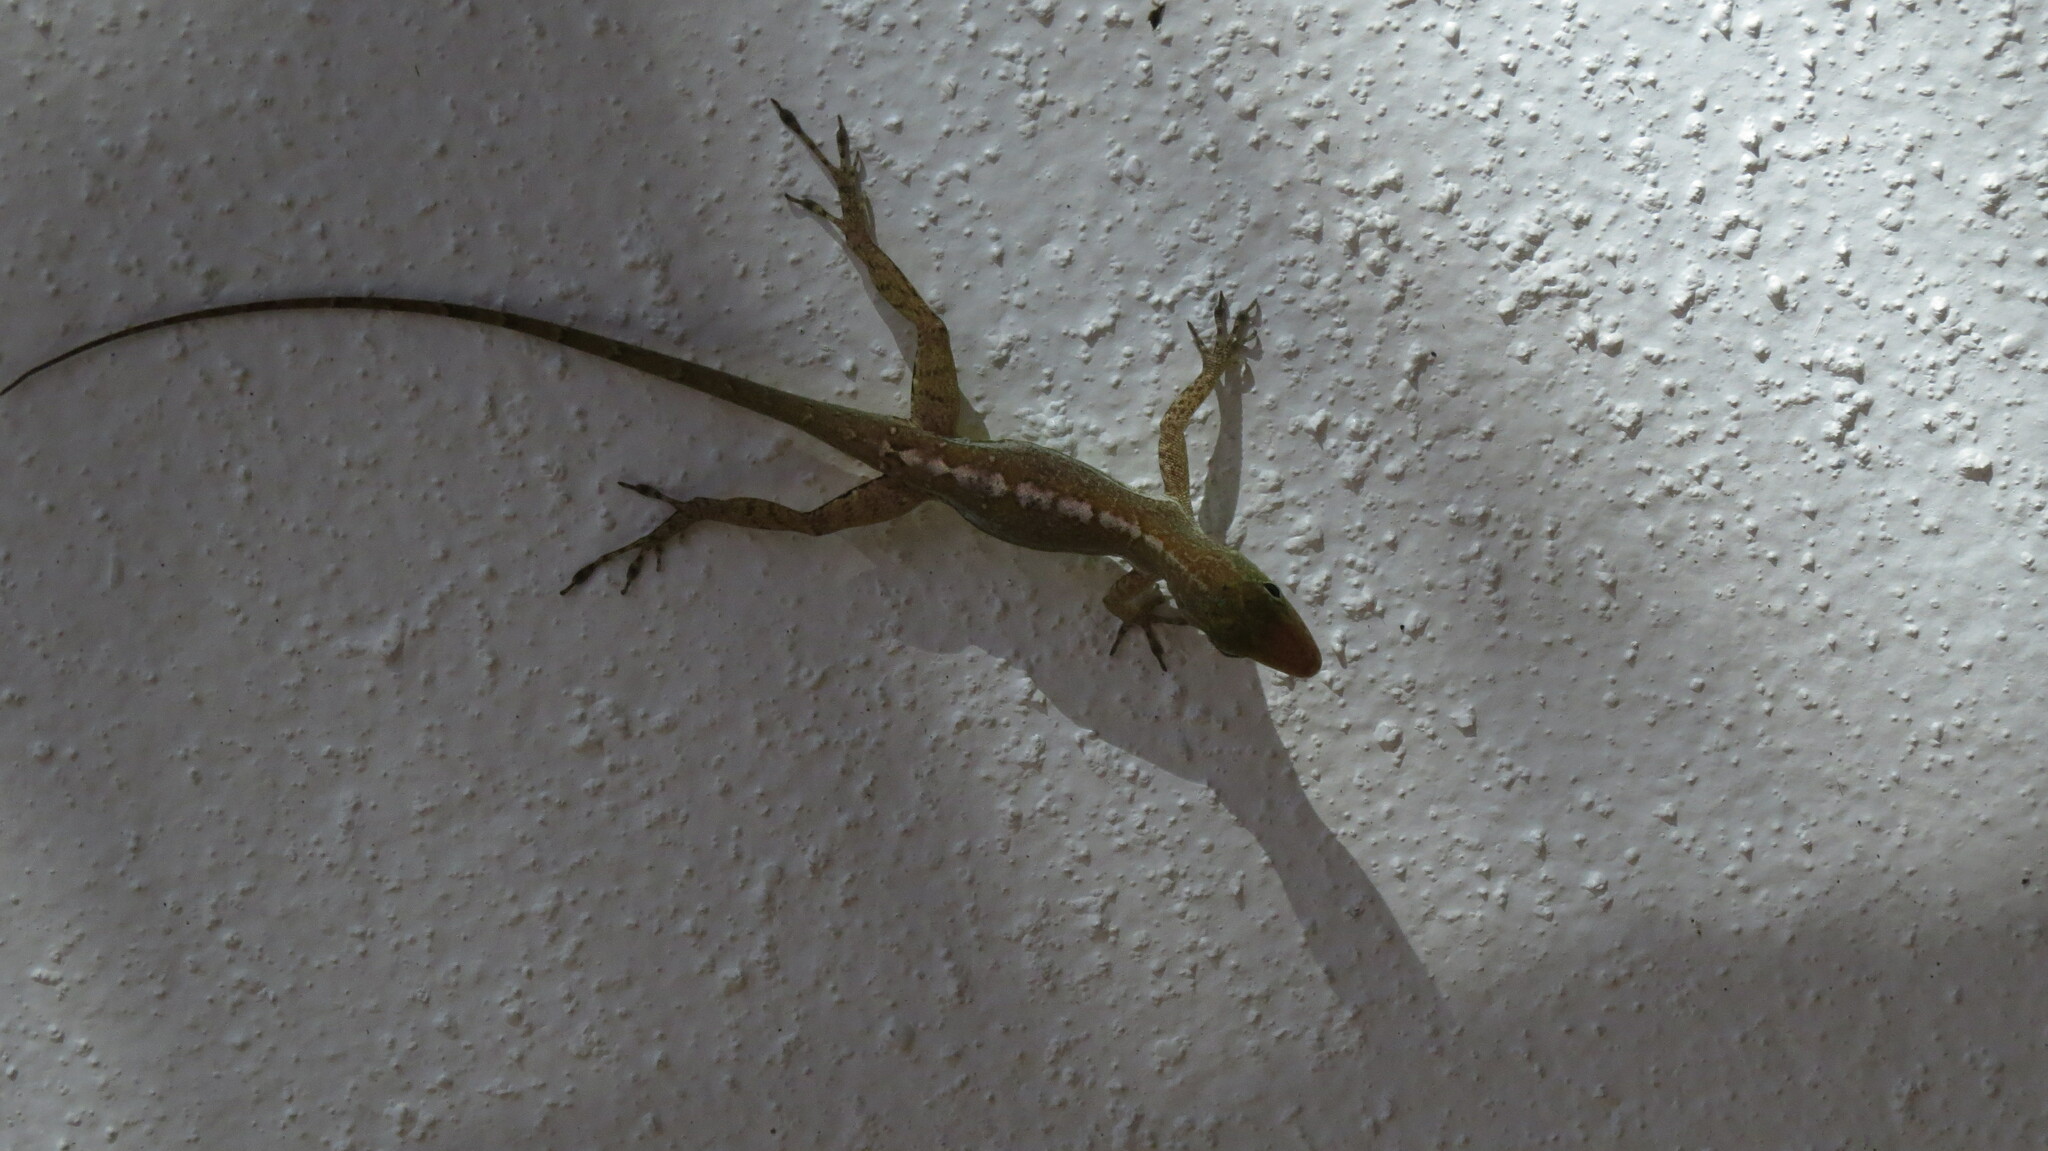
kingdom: Animalia
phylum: Chordata
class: Squamata
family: Dactyloidae
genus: Anolis
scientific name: Anolis acutus
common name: Saint croix's anole
